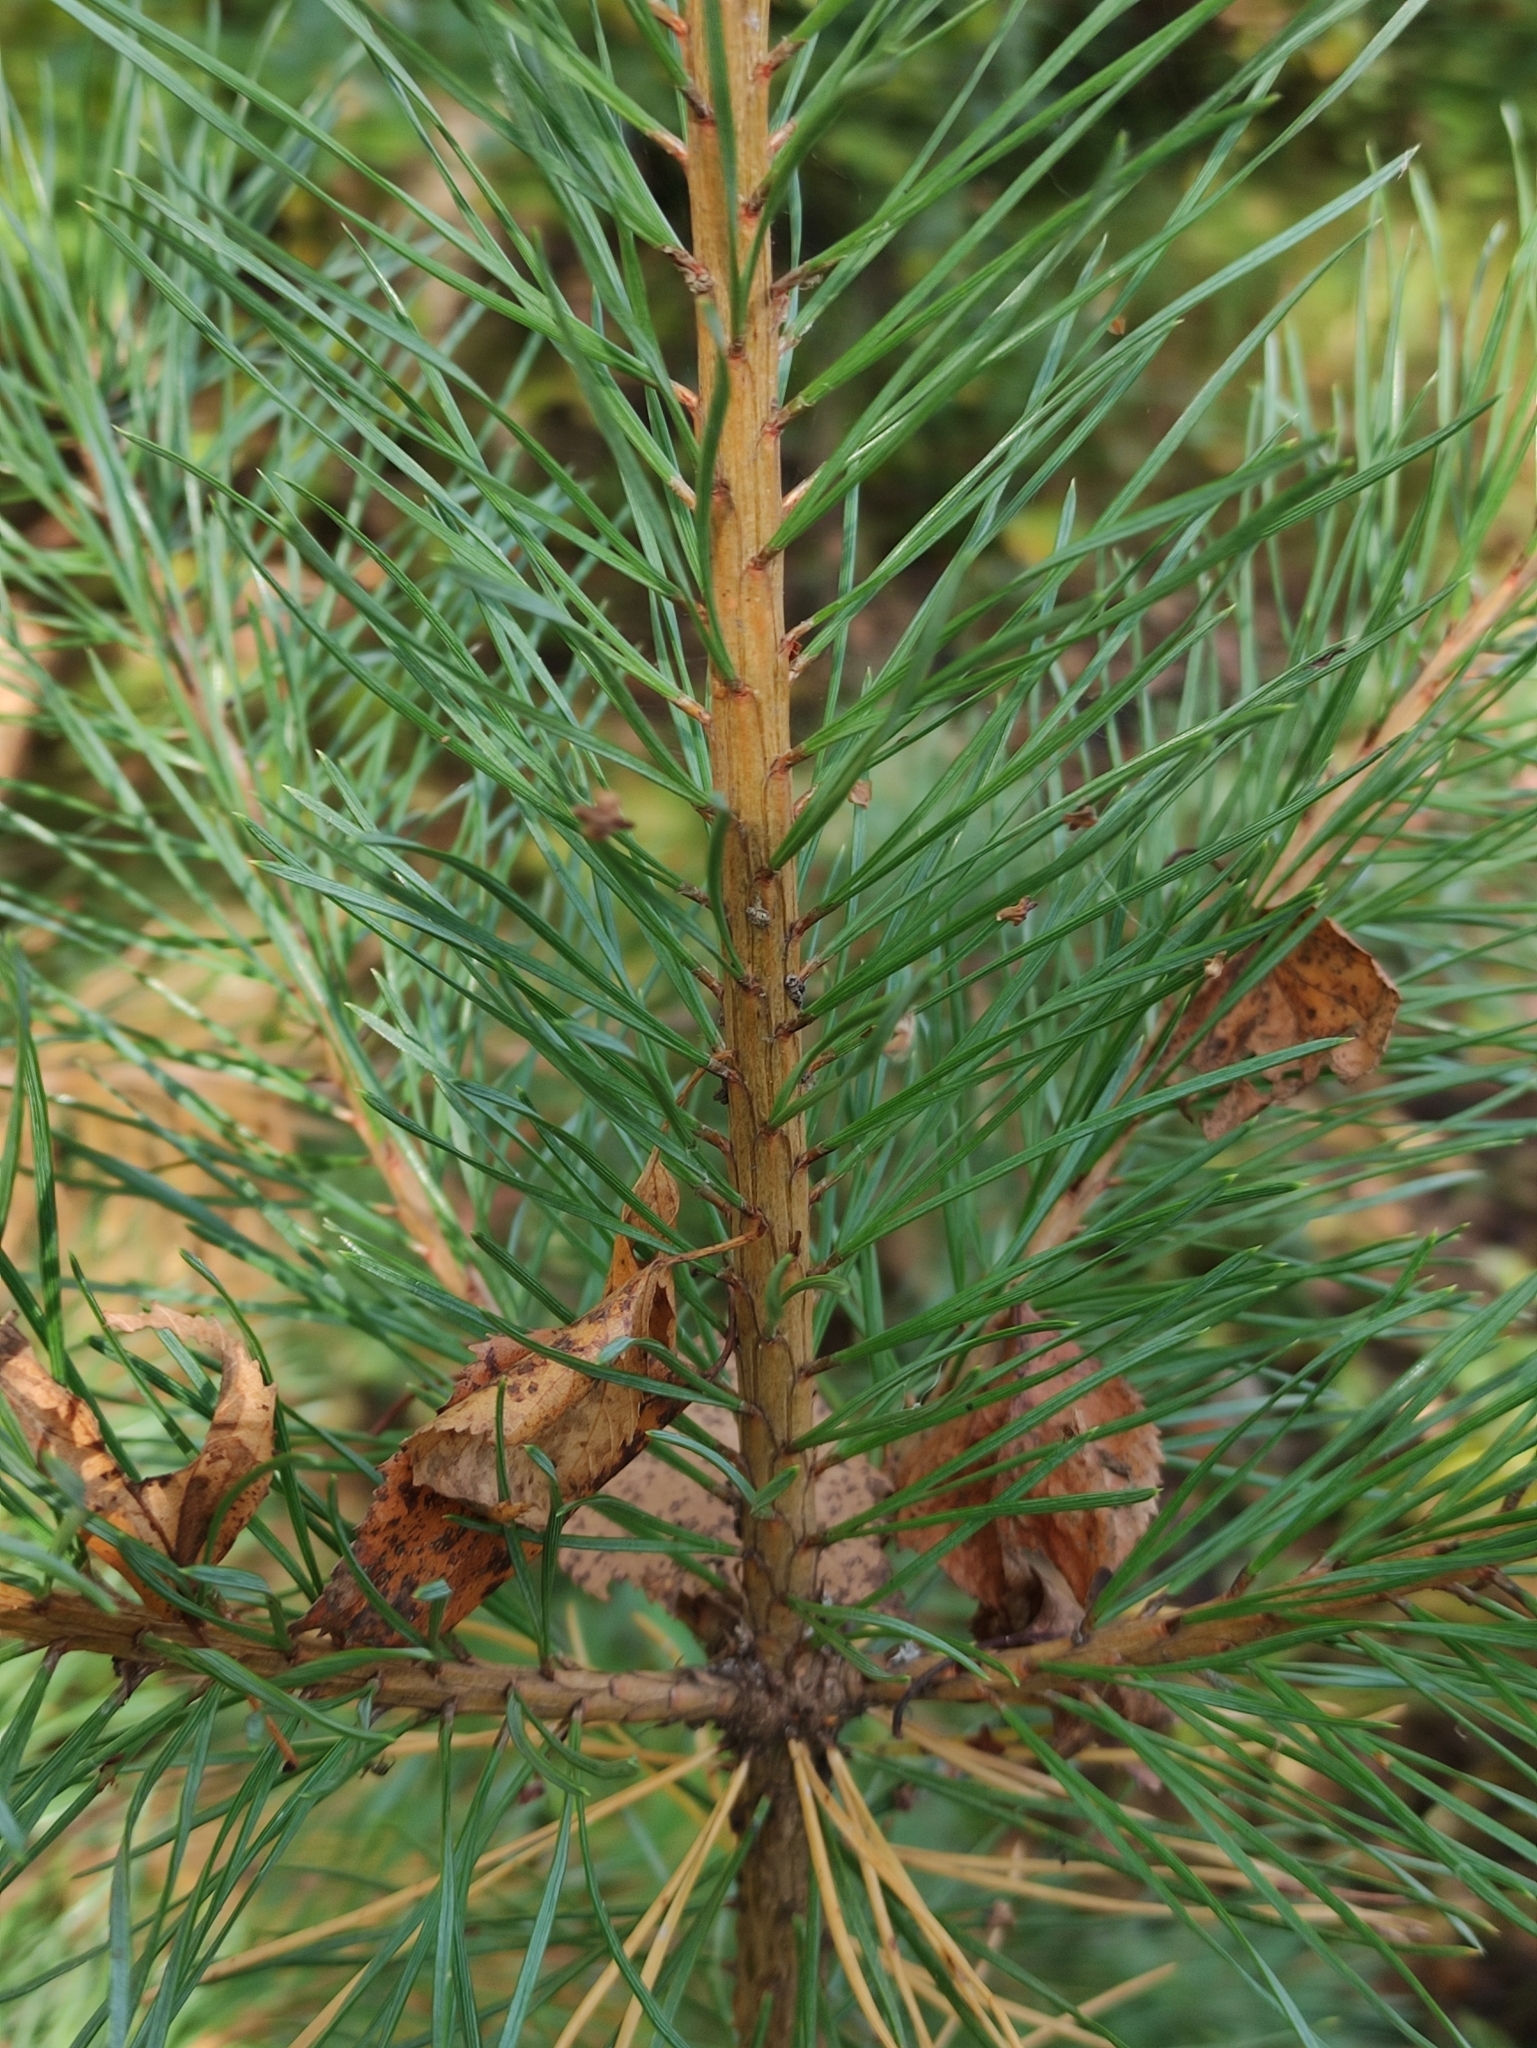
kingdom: Plantae
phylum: Tracheophyta
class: Pinopsida
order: Pinales
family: Pinaceae
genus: Pinus
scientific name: Pinus sylvestris
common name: Scots pine
